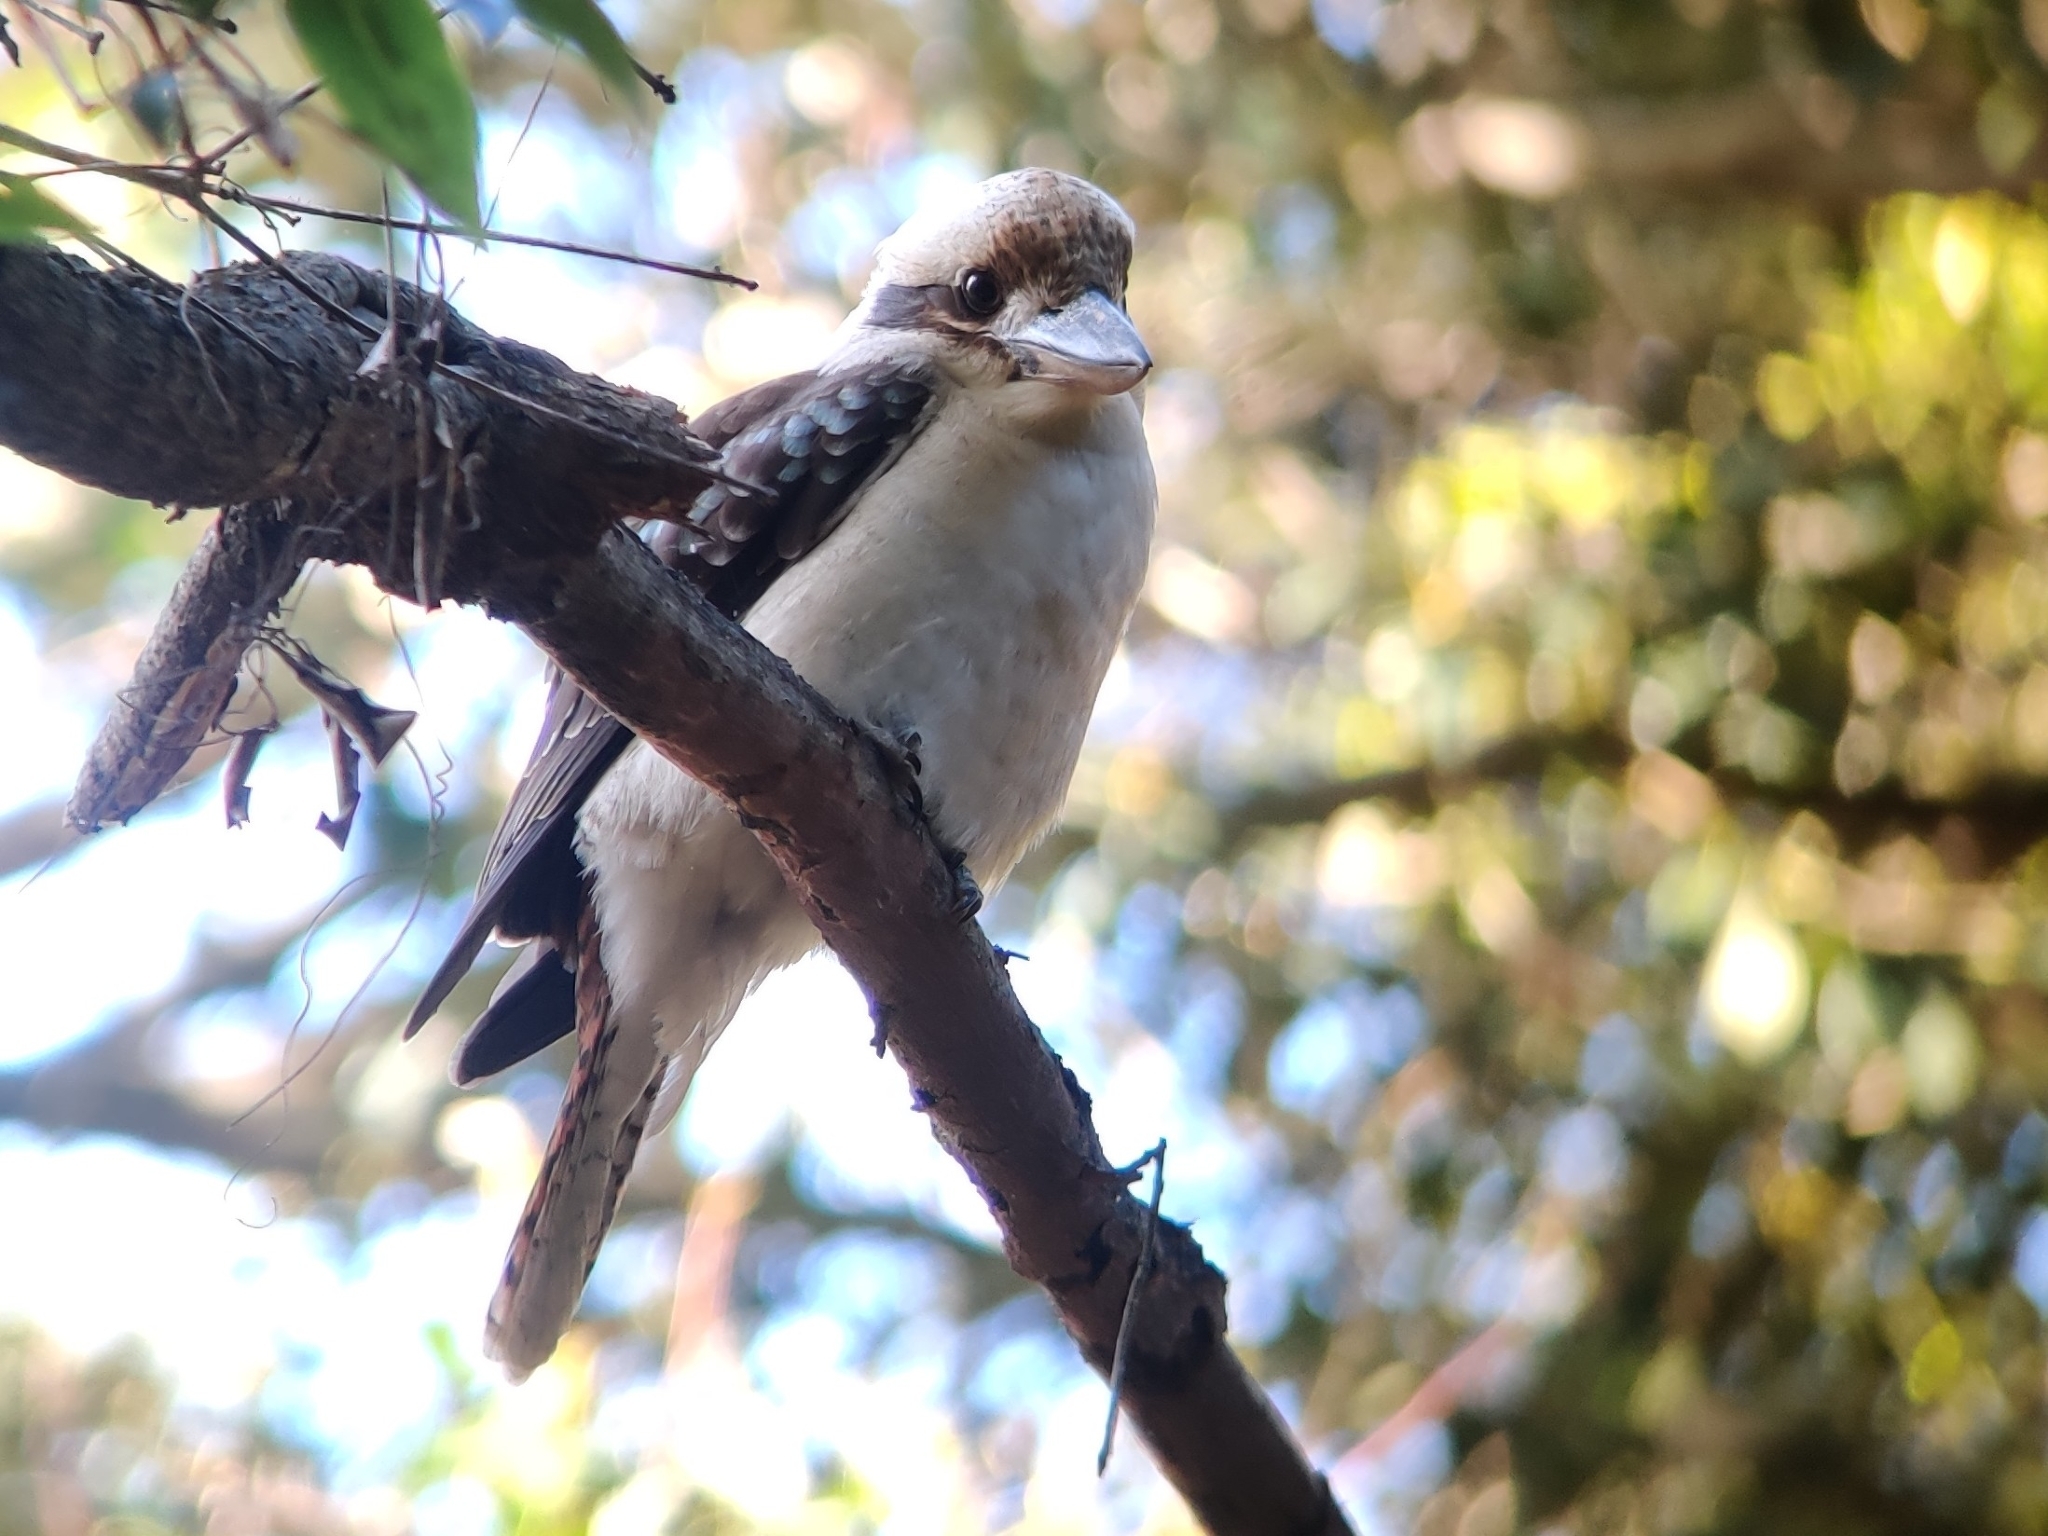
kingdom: Animalia
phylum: Chordata
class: Aves
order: Coraciiformes
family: Alcedinidae
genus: Dacelo
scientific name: Dacelo novaeguineae
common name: Laughing kookaburra
